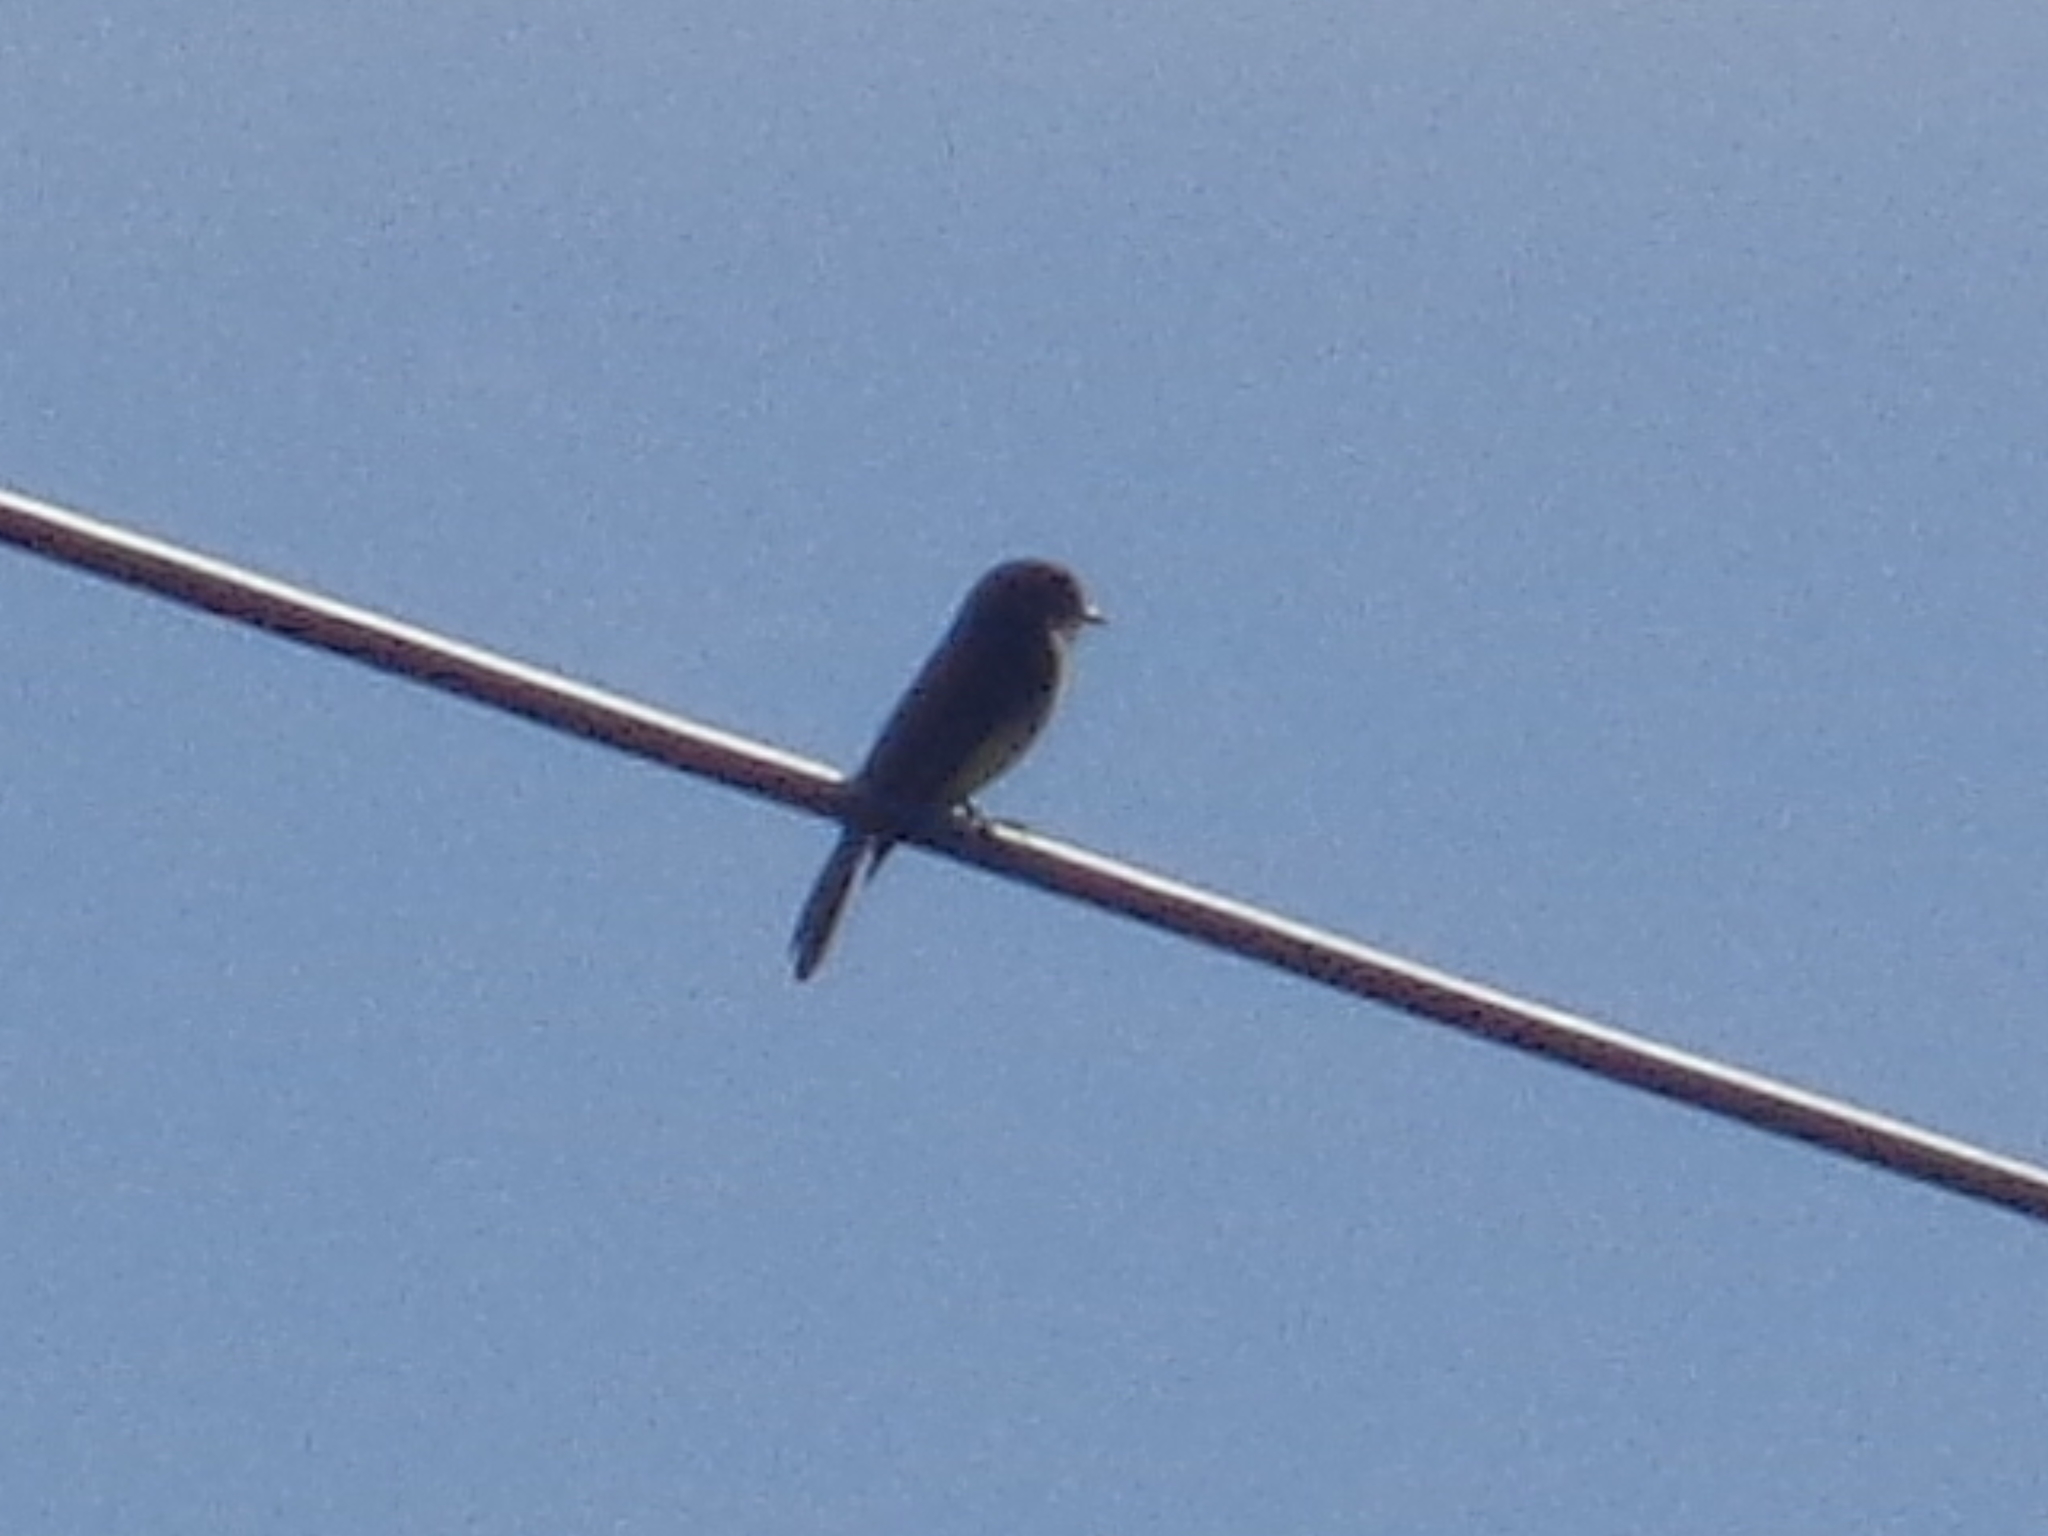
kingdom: Animalia
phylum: Chordata
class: Aves
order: Passeriformes
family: Tyrannidae
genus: Sayornis
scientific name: Sayornis phoebe
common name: Eastern phoebe
